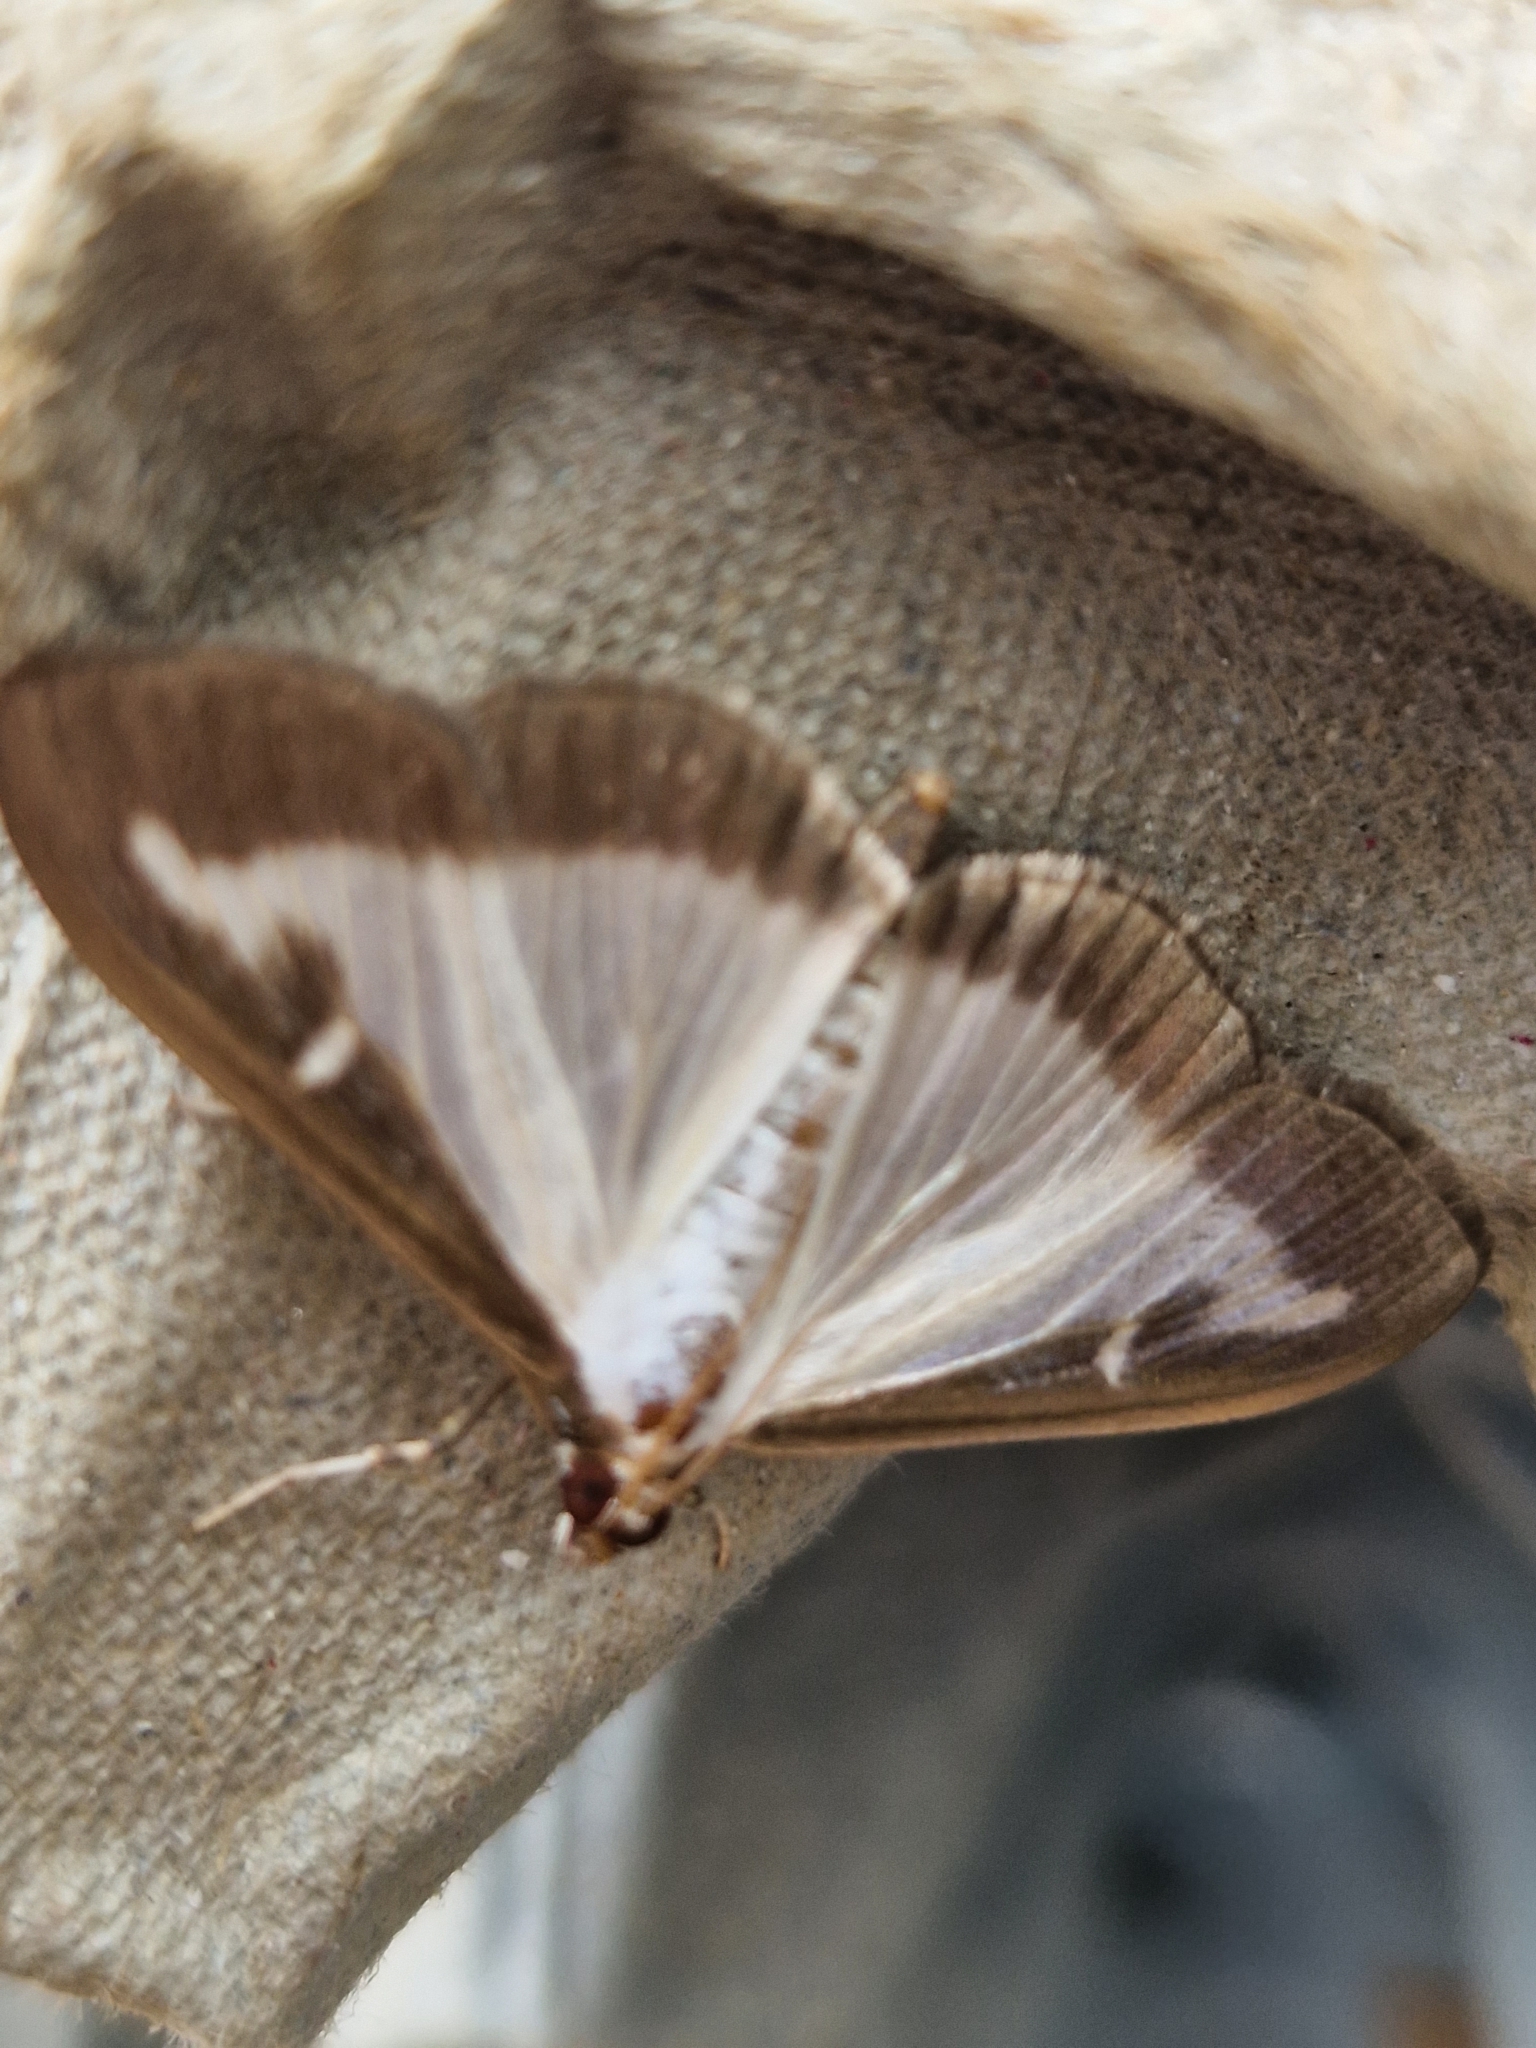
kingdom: Animalia
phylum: Arthropoda
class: Insecta
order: Lepidoptera
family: Crambidae
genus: Cydalima
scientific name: Cydalima perspectalis
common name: Box tree moth
